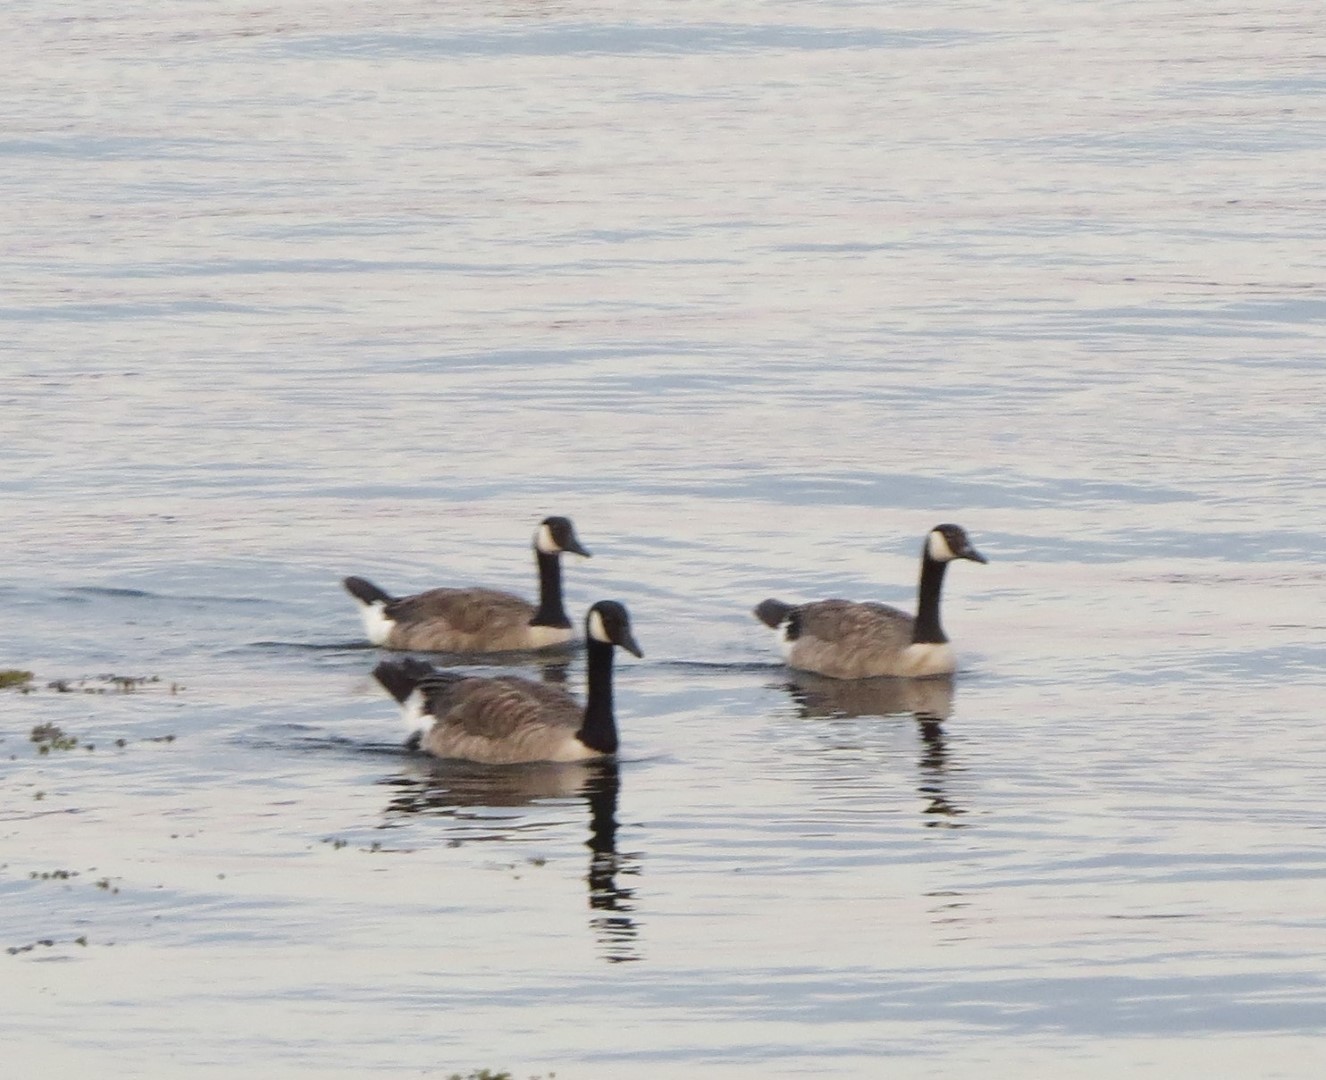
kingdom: Animalia
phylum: Chordata
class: Aves
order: Anseriformes
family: Anatidae
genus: Branta
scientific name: Branta canadensis
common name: Canada goose
